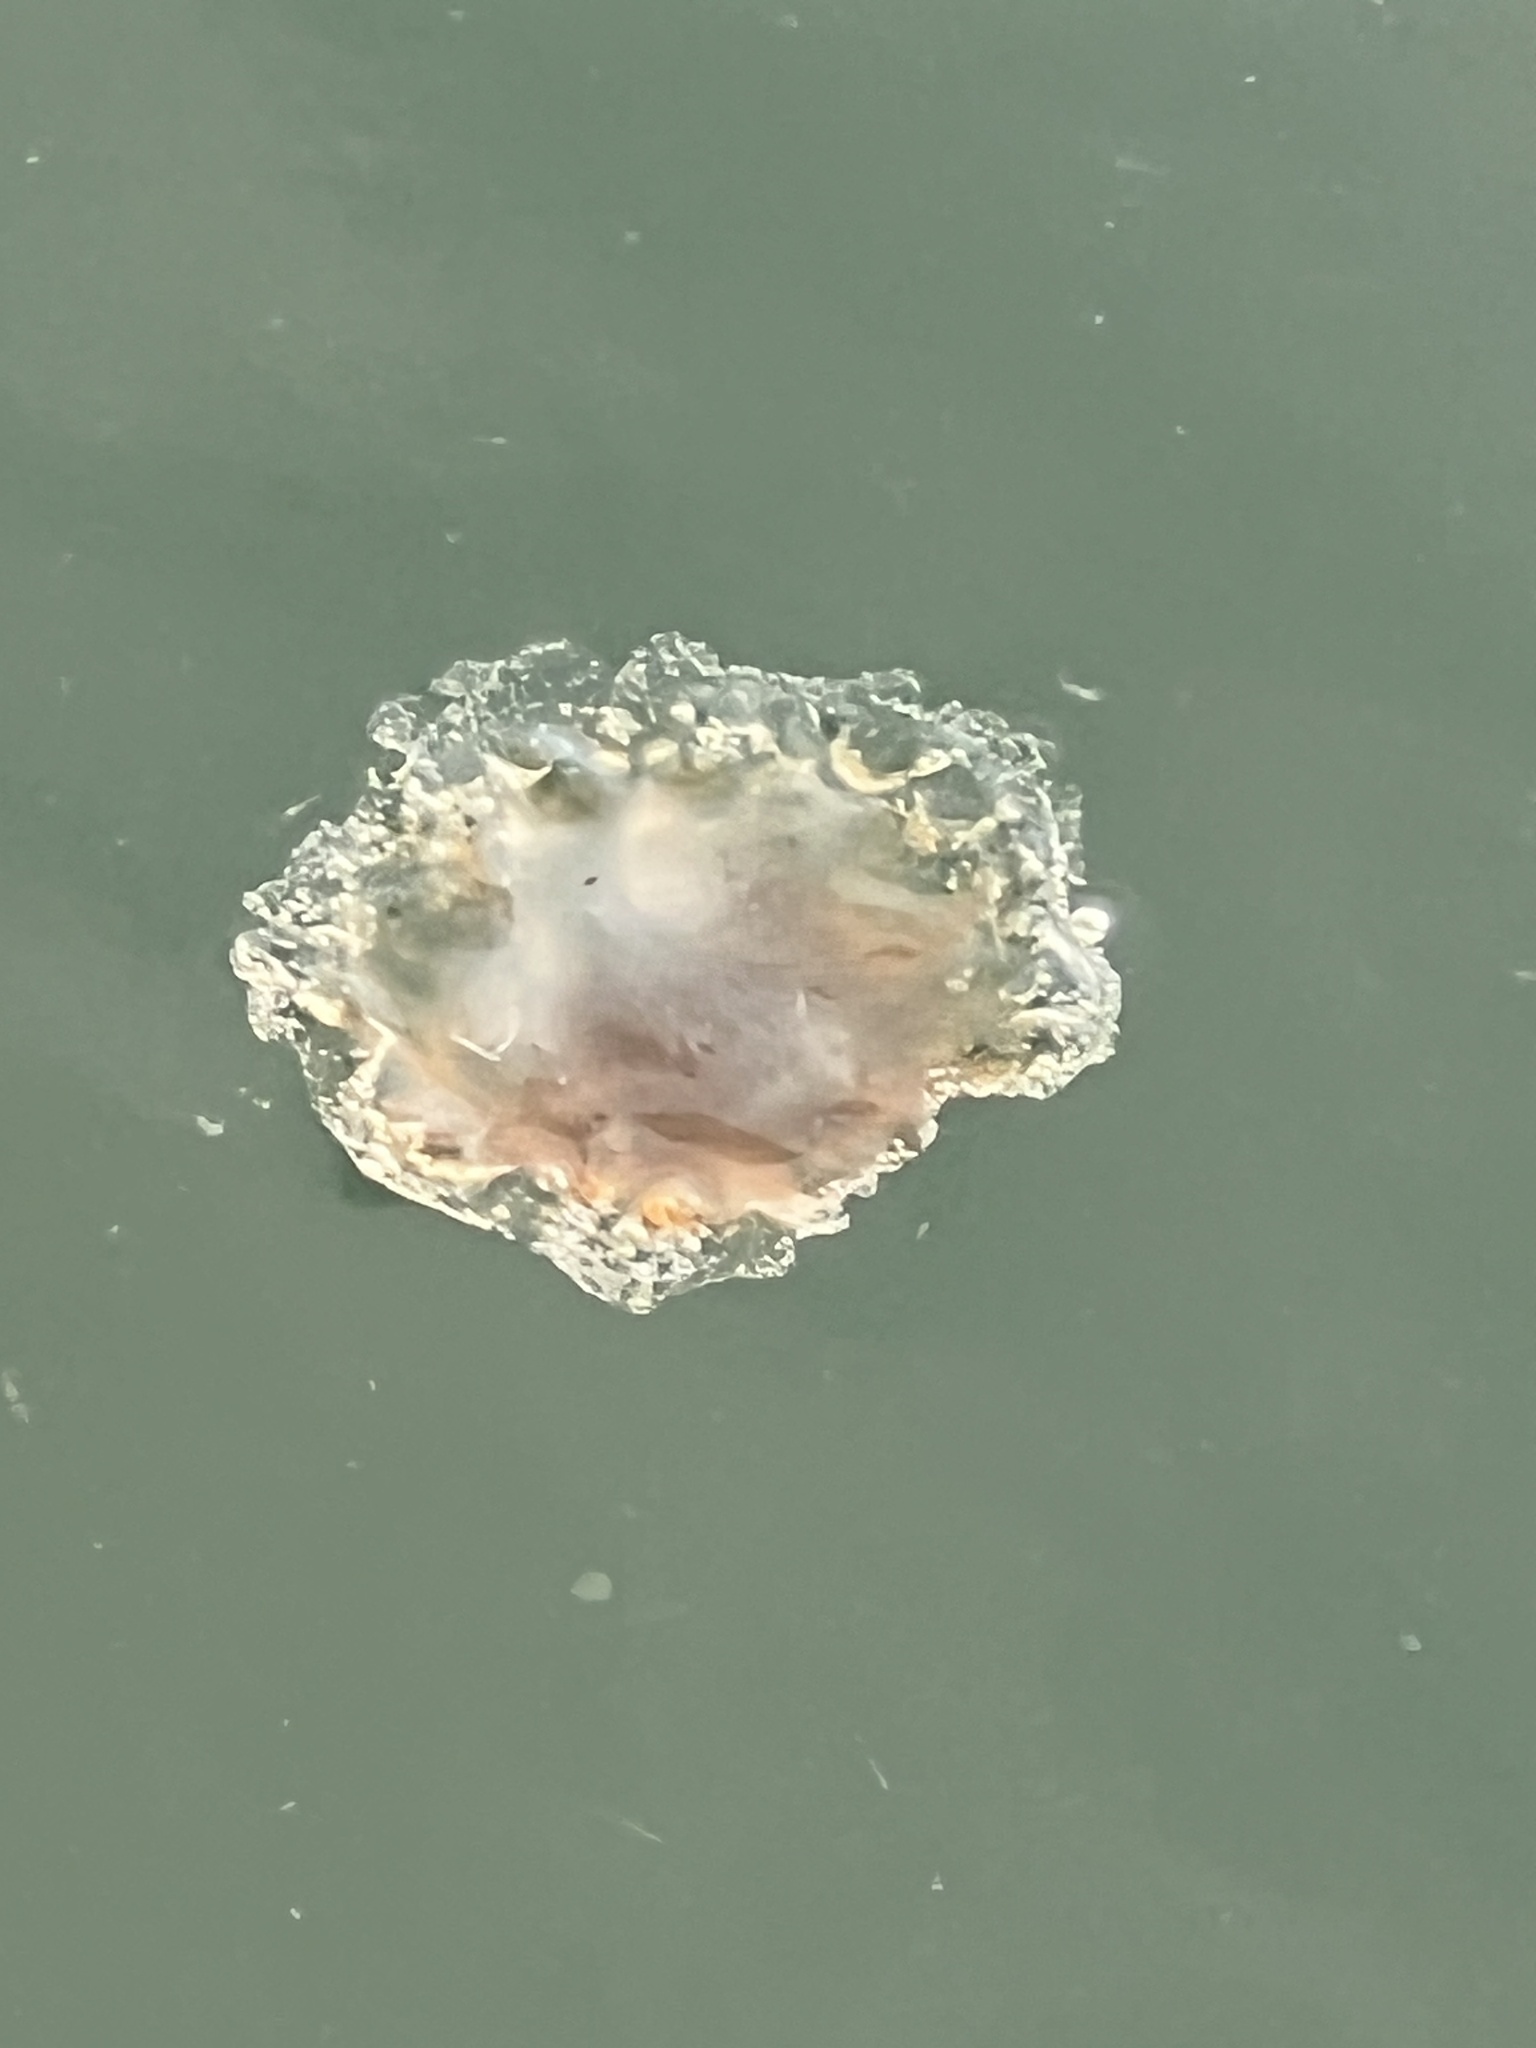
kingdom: Animalia
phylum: Cnidaria
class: Scyphozoa
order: Semaeostomeae
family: Cyaneidae
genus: Cyanea
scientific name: Cyanea fulva
